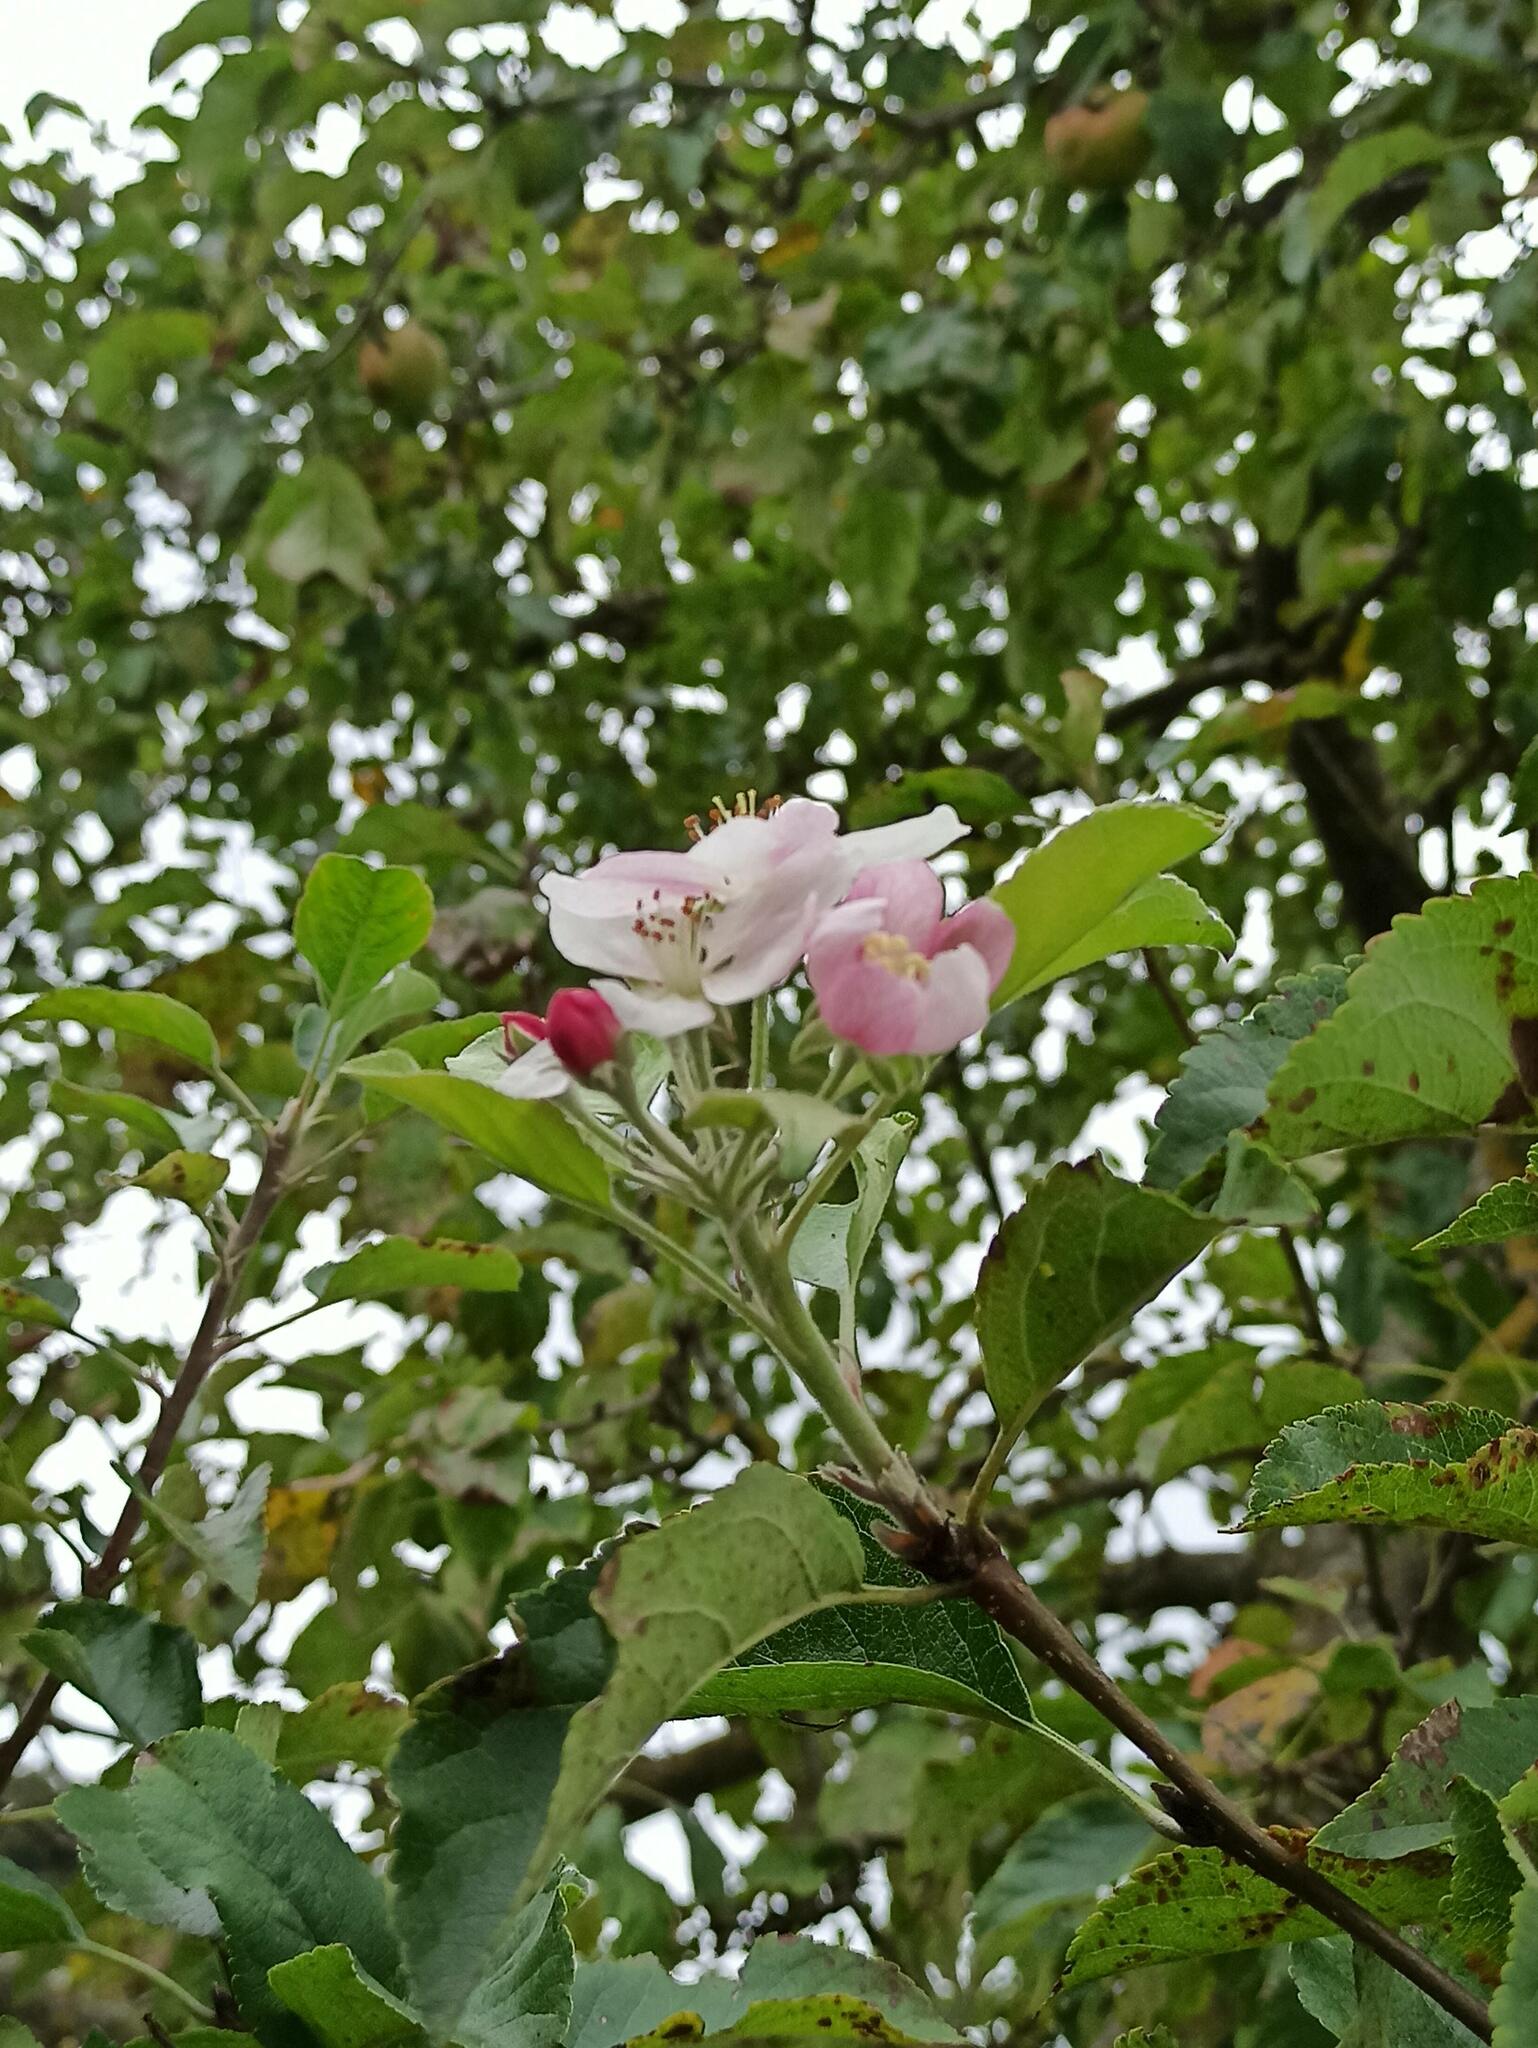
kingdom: Plantae
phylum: Tracheophyta
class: Magnoliopsida
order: Rosales
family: Rosaceae
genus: Malus
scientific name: Malus domestica
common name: Apple
